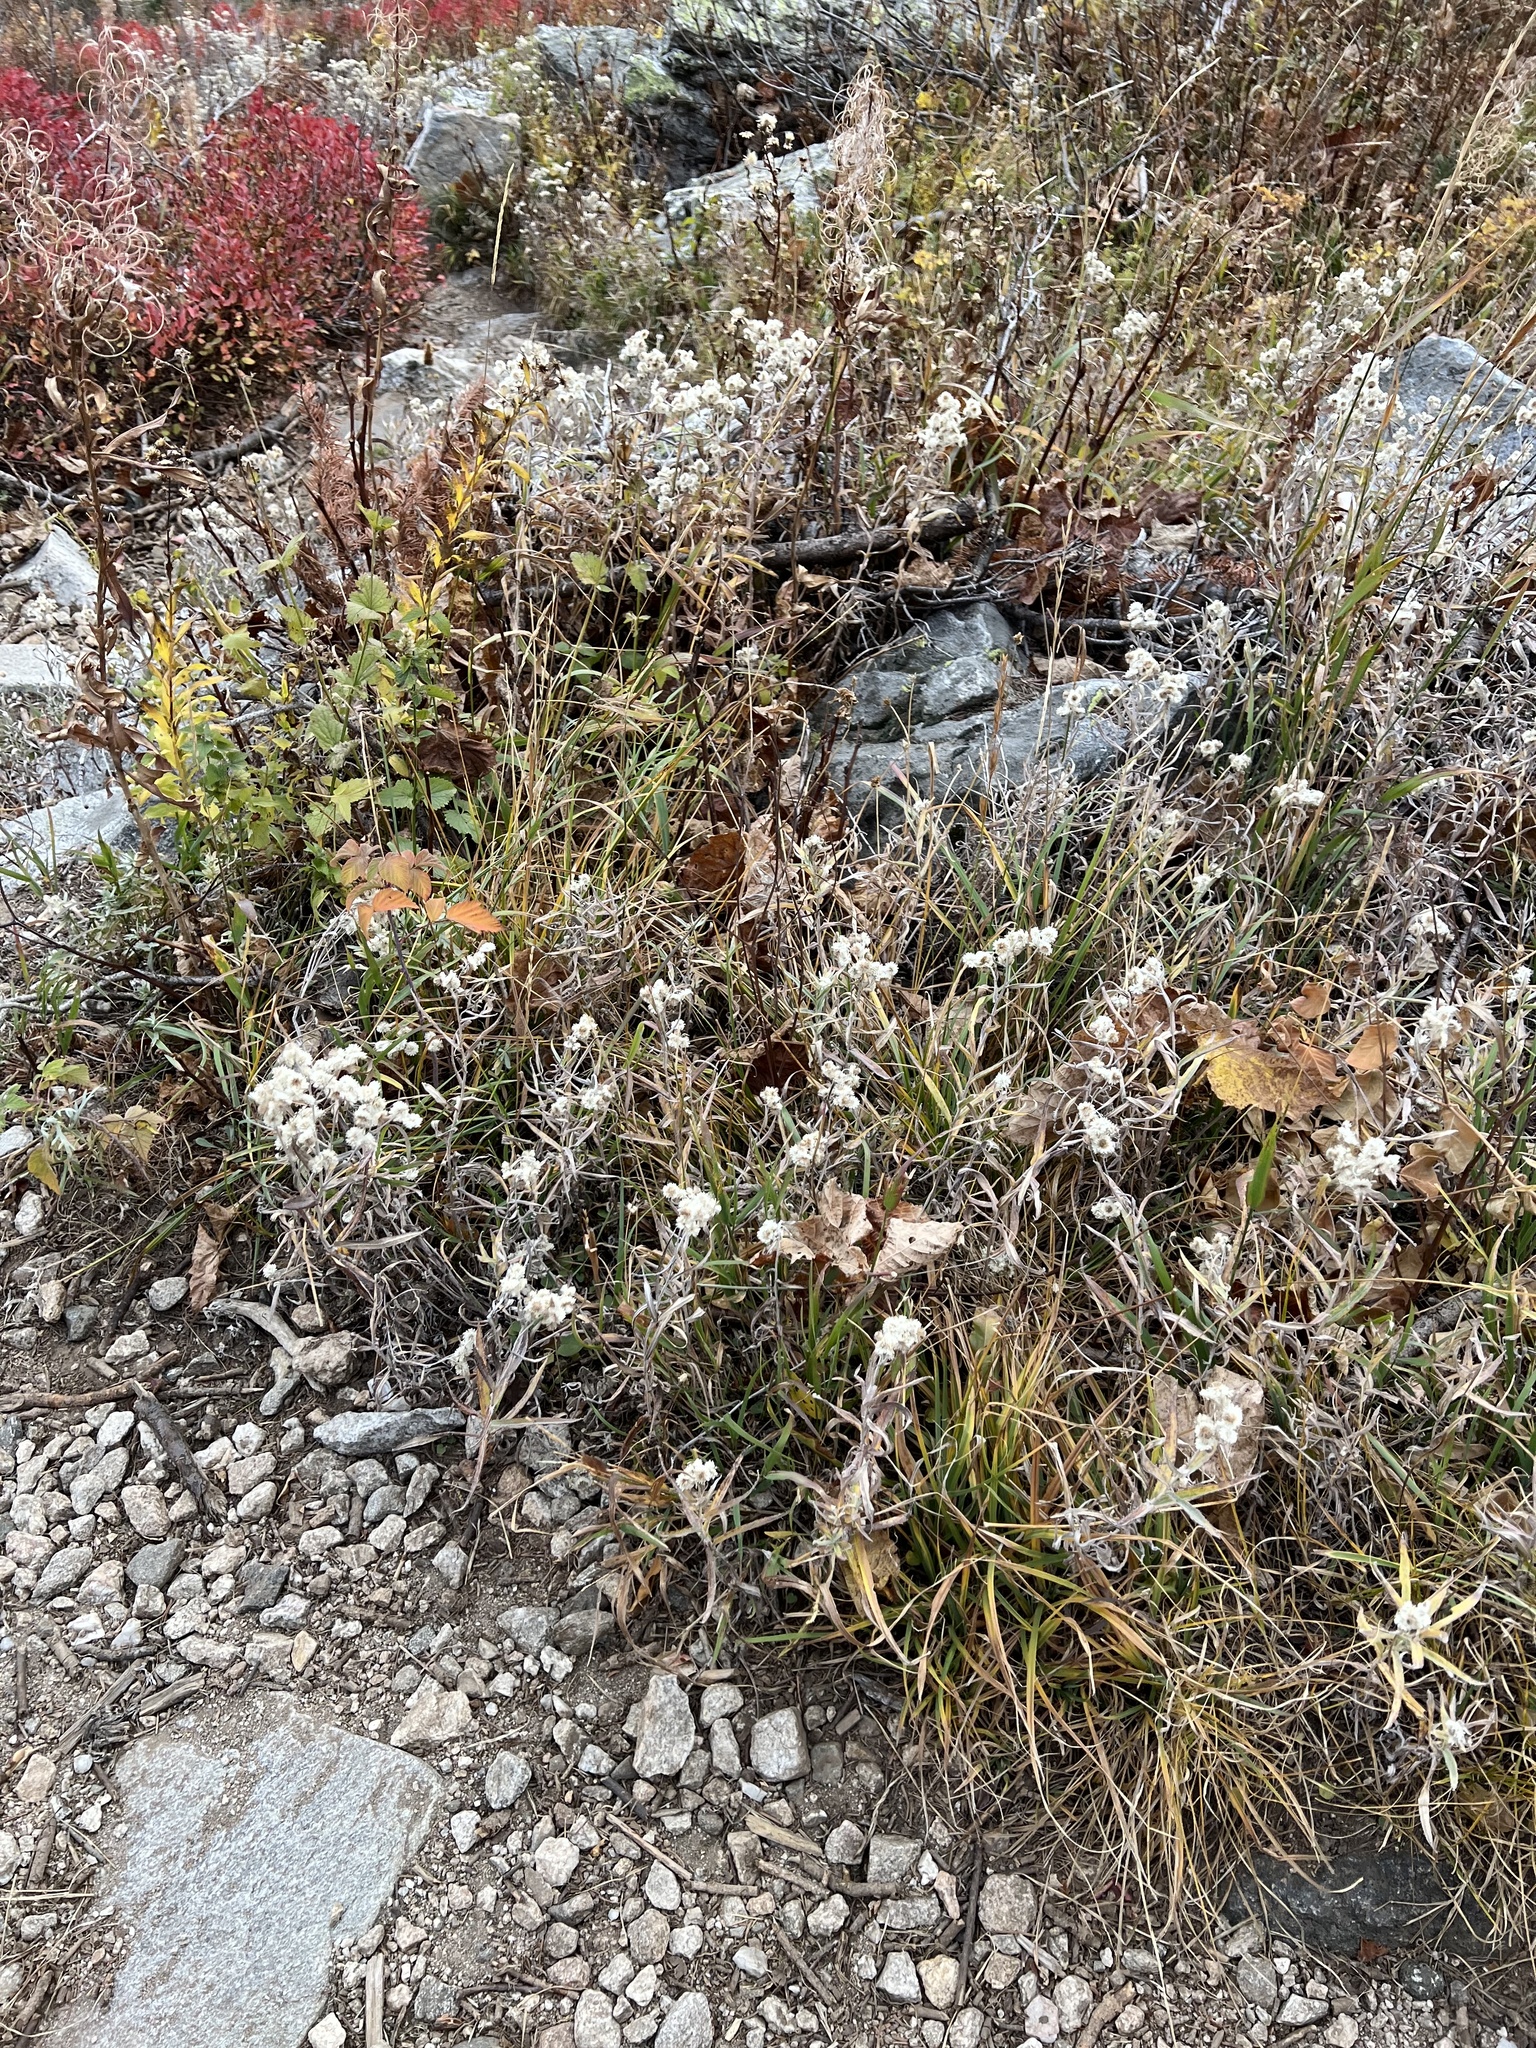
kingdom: Plantae
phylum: Tracheophyta
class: Magnoliopsida
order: Asterales
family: Asteraceae
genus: Anaphalis
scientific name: Anaphalis margaritacea
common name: Pearly everlasting
